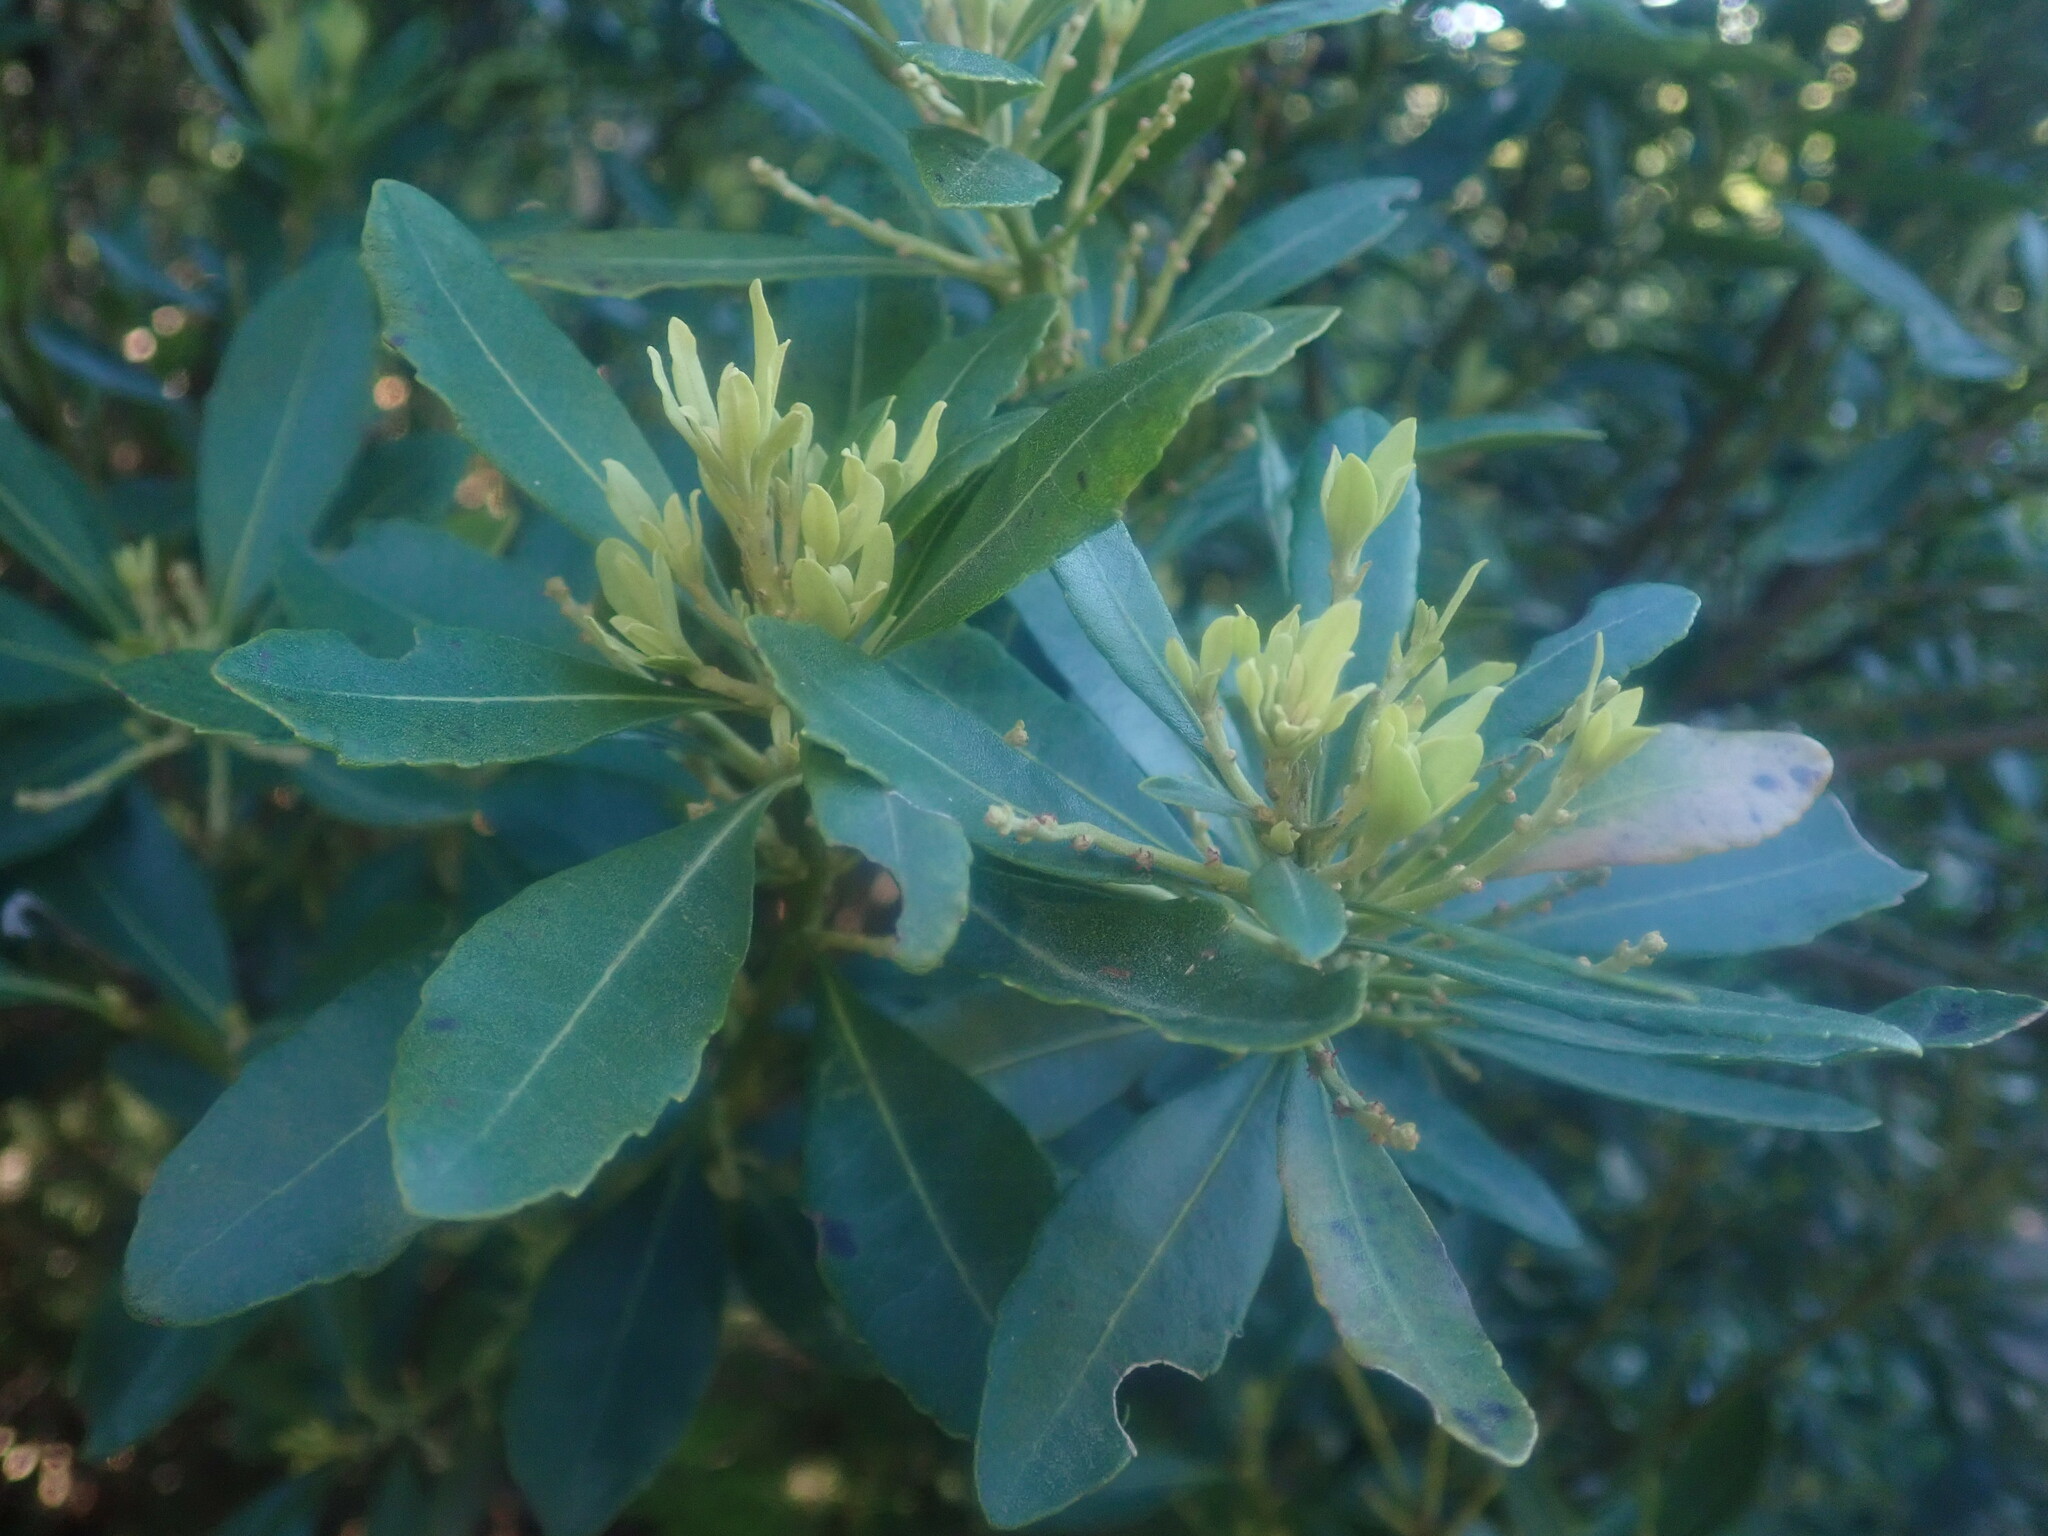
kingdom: Plantae
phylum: Tracheophyta
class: Magnoliopsida
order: Fagales
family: Myricaceae
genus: Morella
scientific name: Morella faya
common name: Firetree
